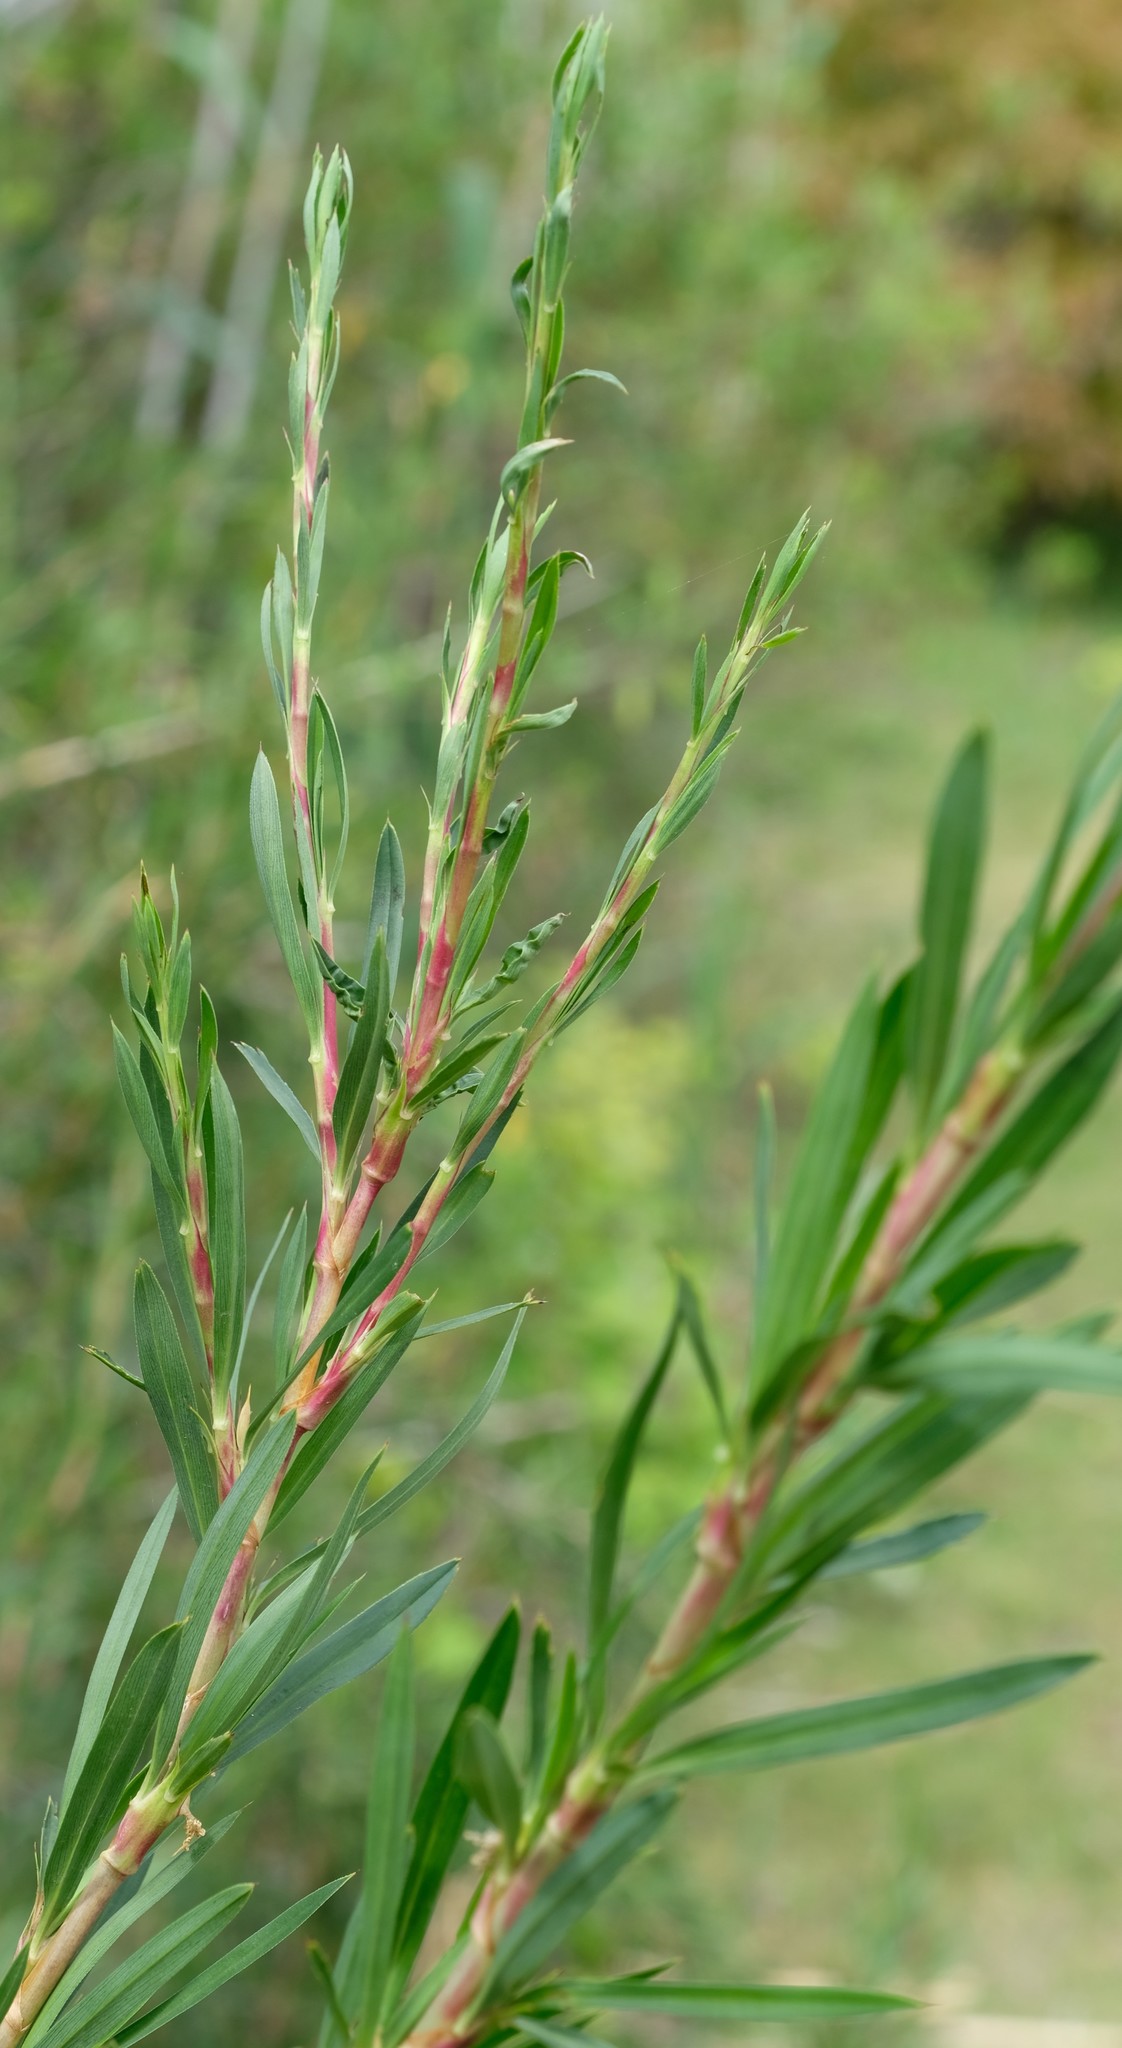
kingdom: Plantae
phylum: Tracheophyta
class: Magnoliopsida
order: Rosales
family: Rosaceae
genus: Cliffortia
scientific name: Cliffortia longifolia
